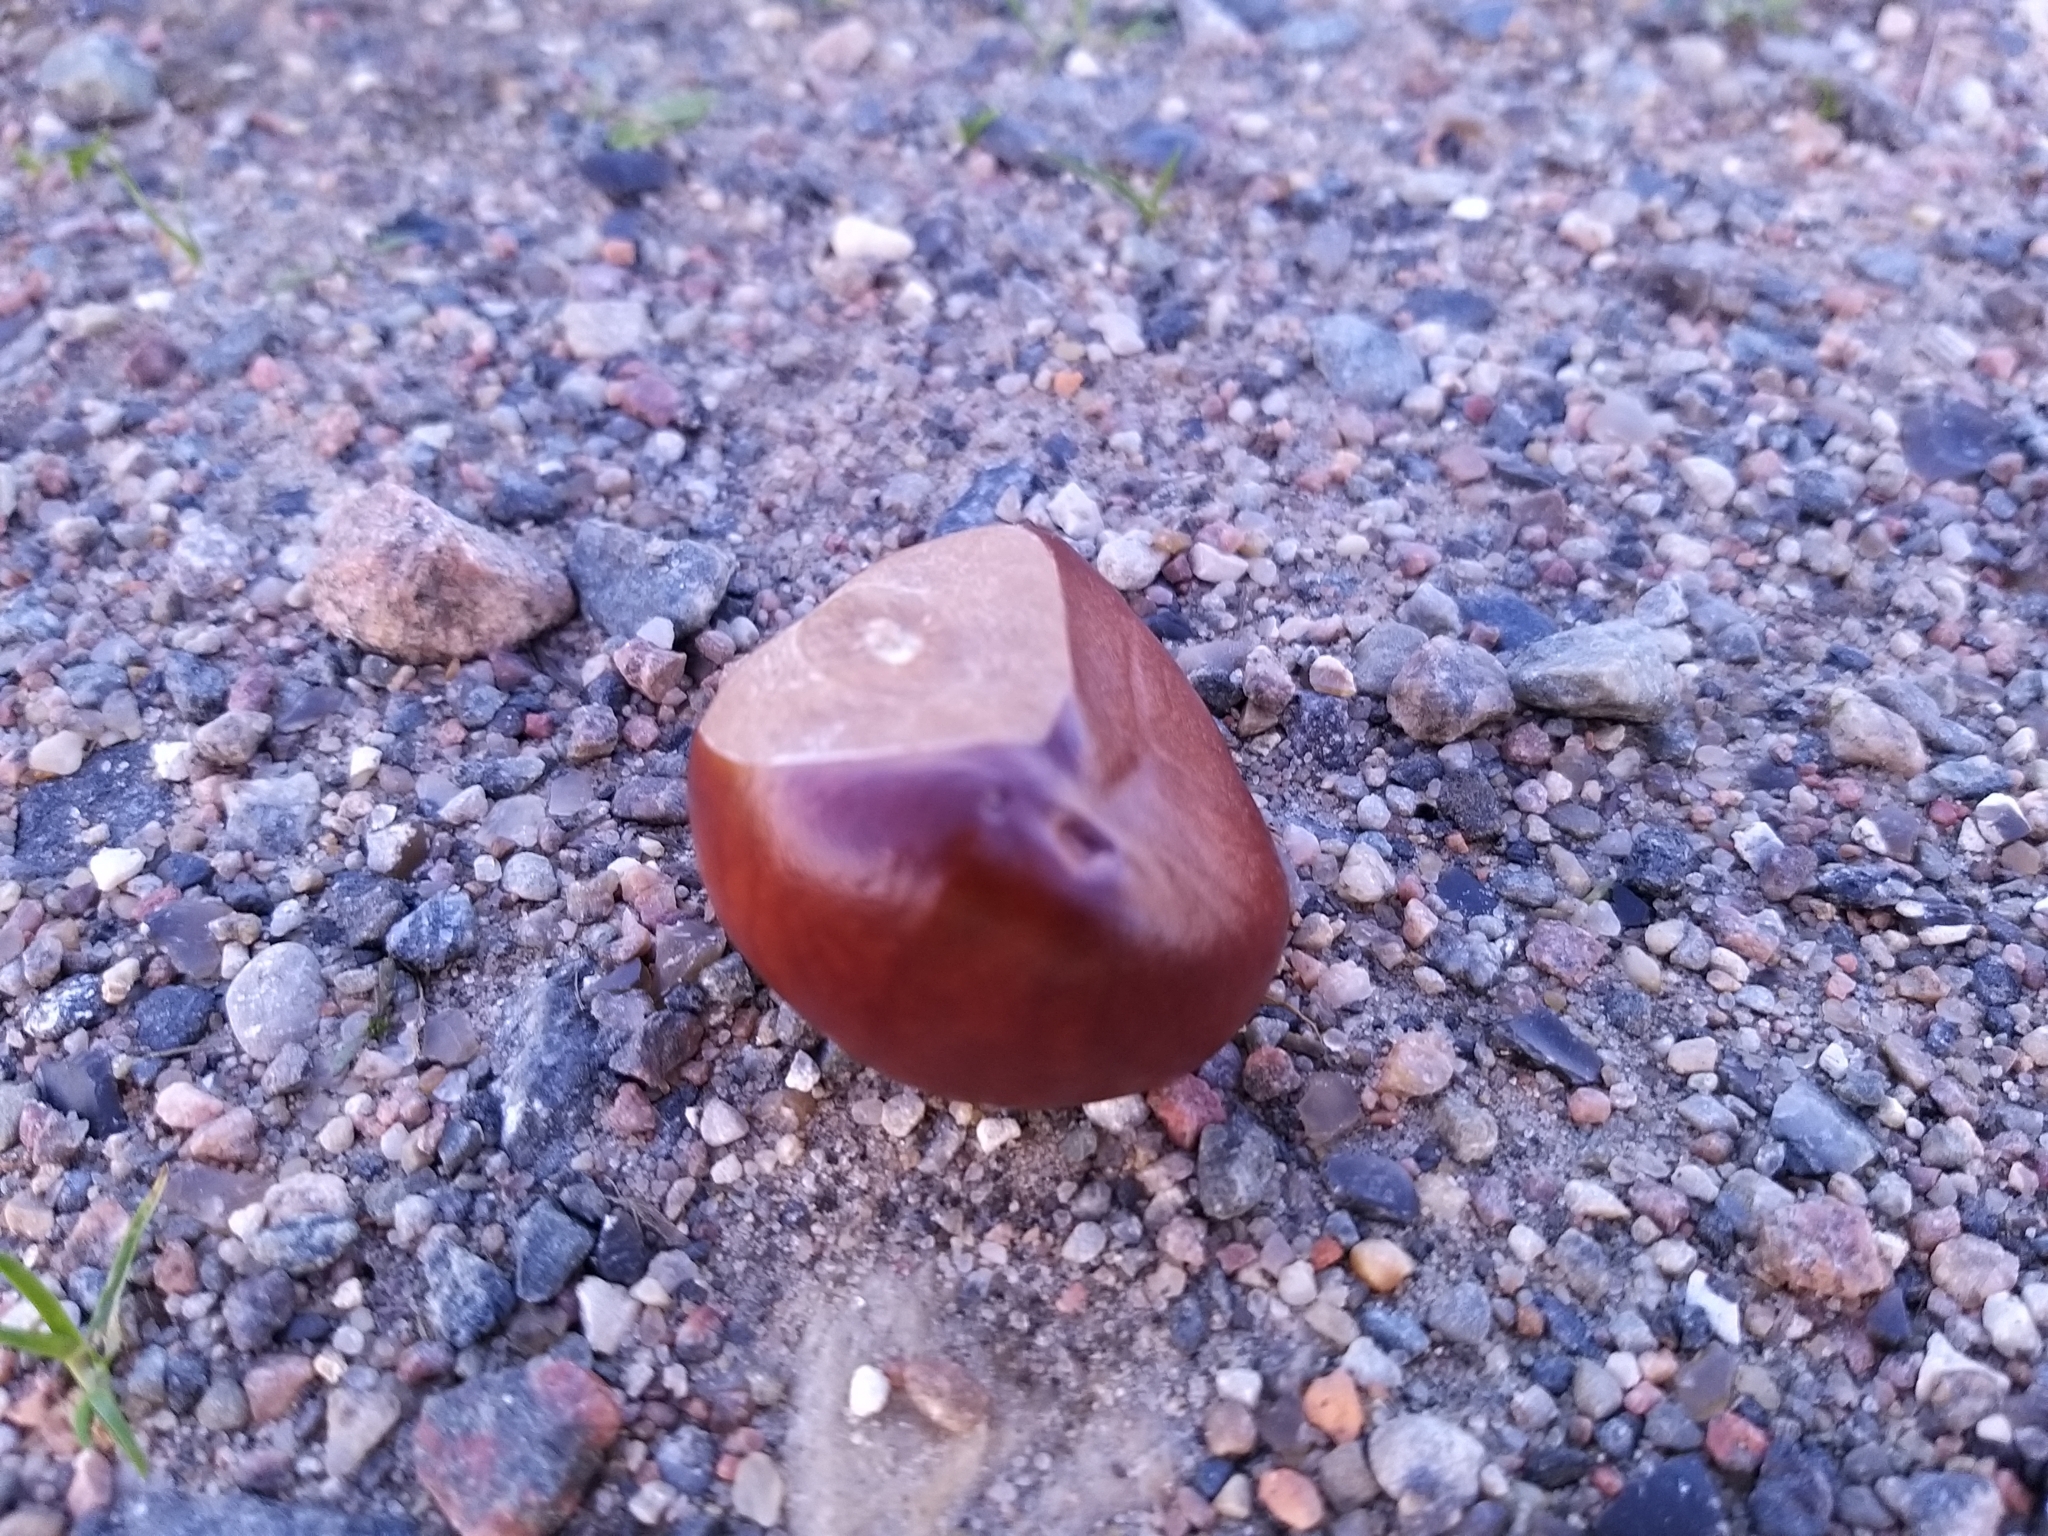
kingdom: Plantae
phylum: Tracheophyta
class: Magnoliopsida
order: Sapindales
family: Sapindaceae
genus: Aesculus
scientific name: Aesculus hippocastanum
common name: Horse-chestnut
